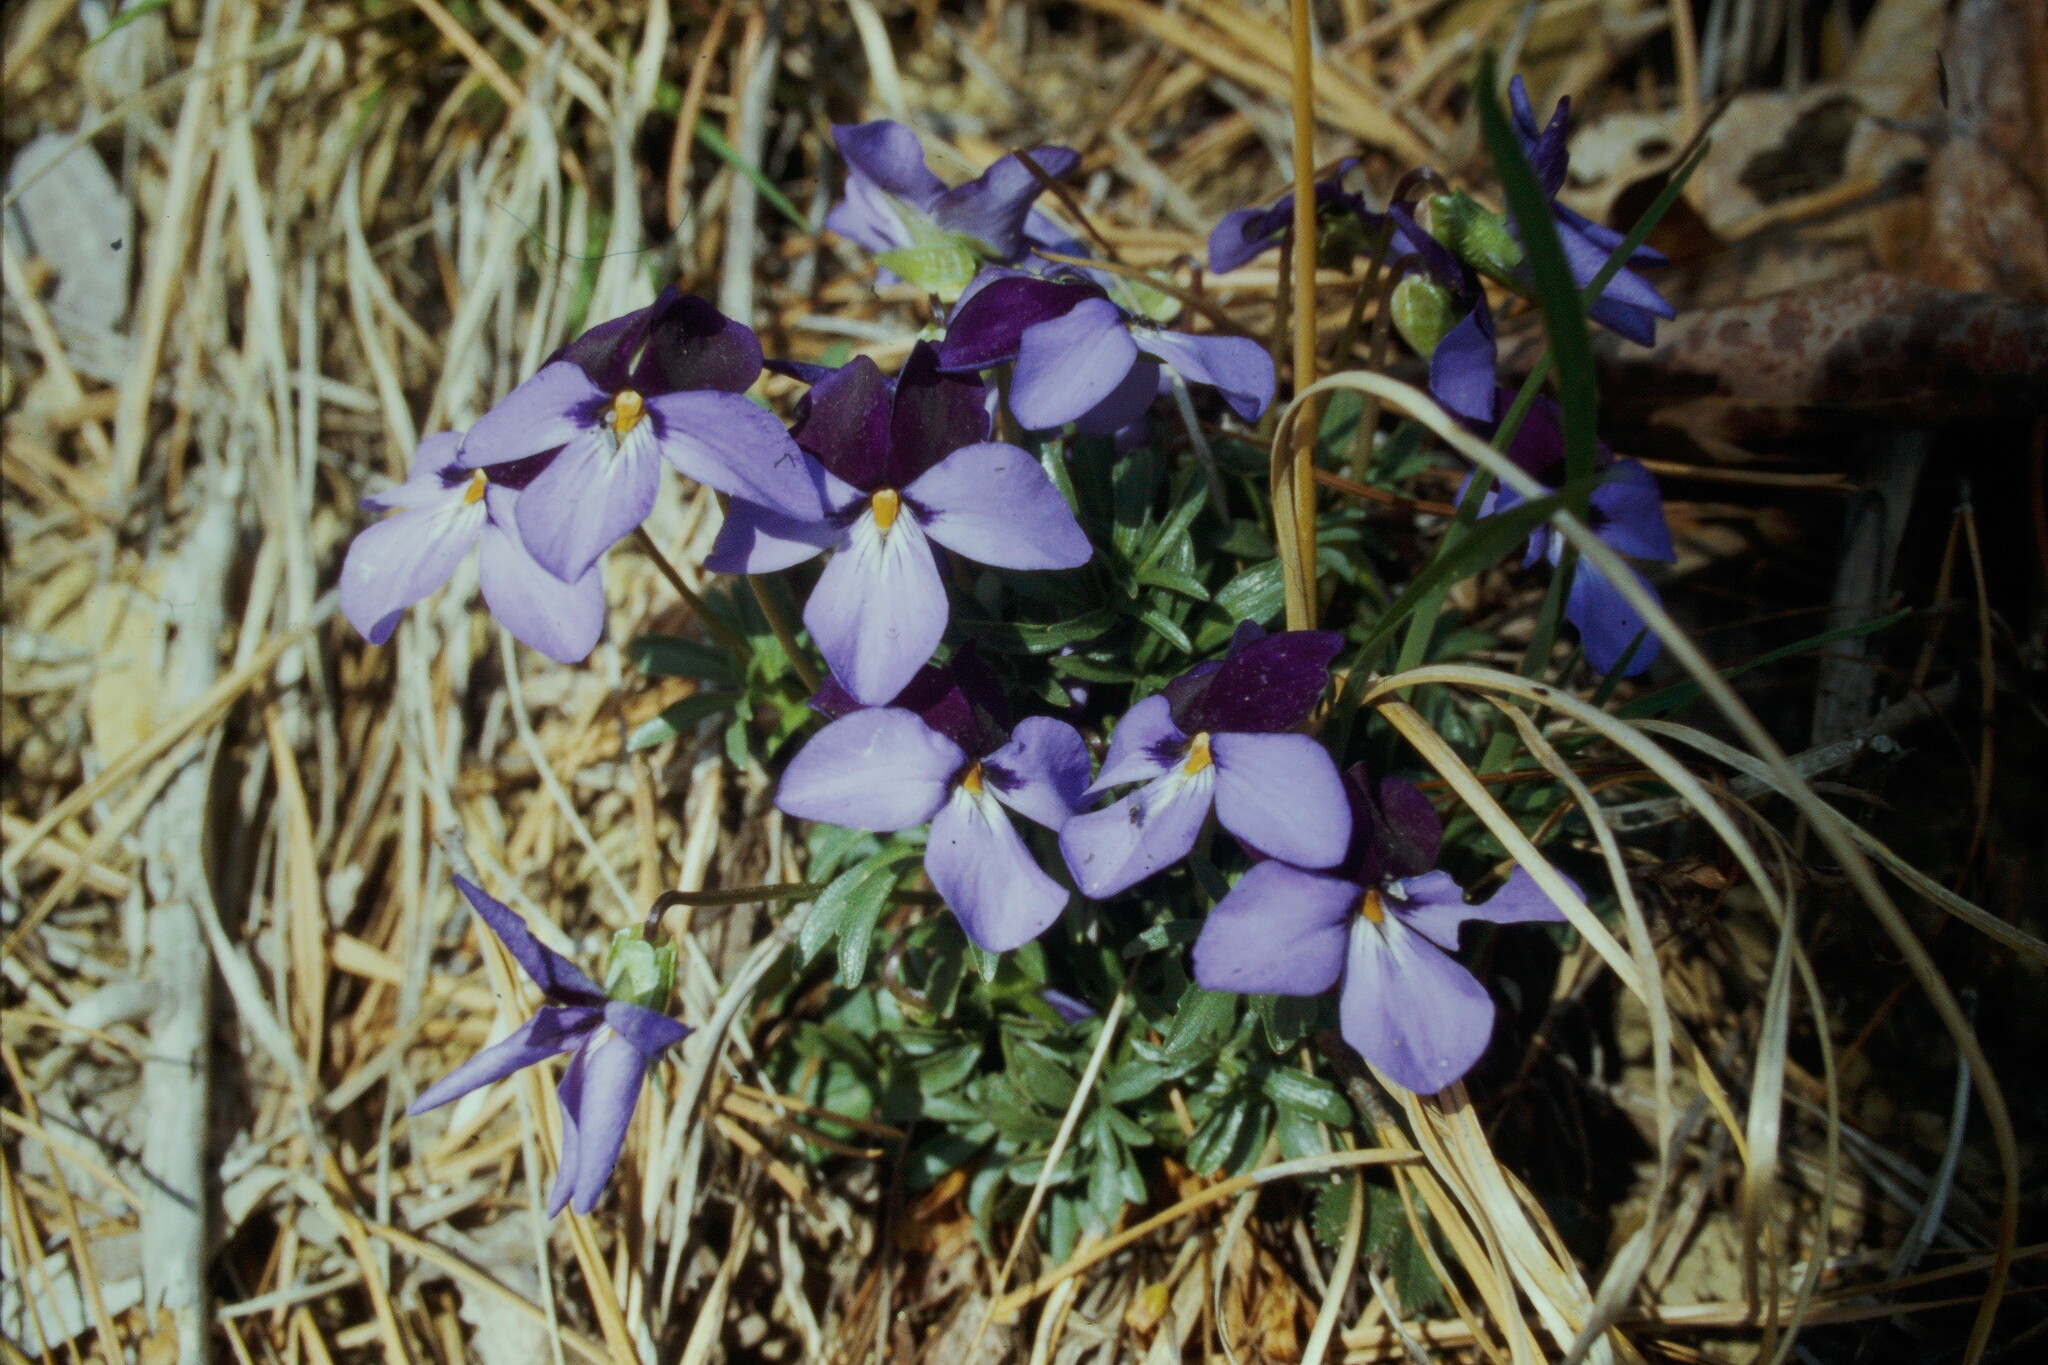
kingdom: Plantae
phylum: Tracheophyta
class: Magnoliopsida
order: Malpighiales
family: Violaceae
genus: Viola
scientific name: Viola pedata
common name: Pansy violet
